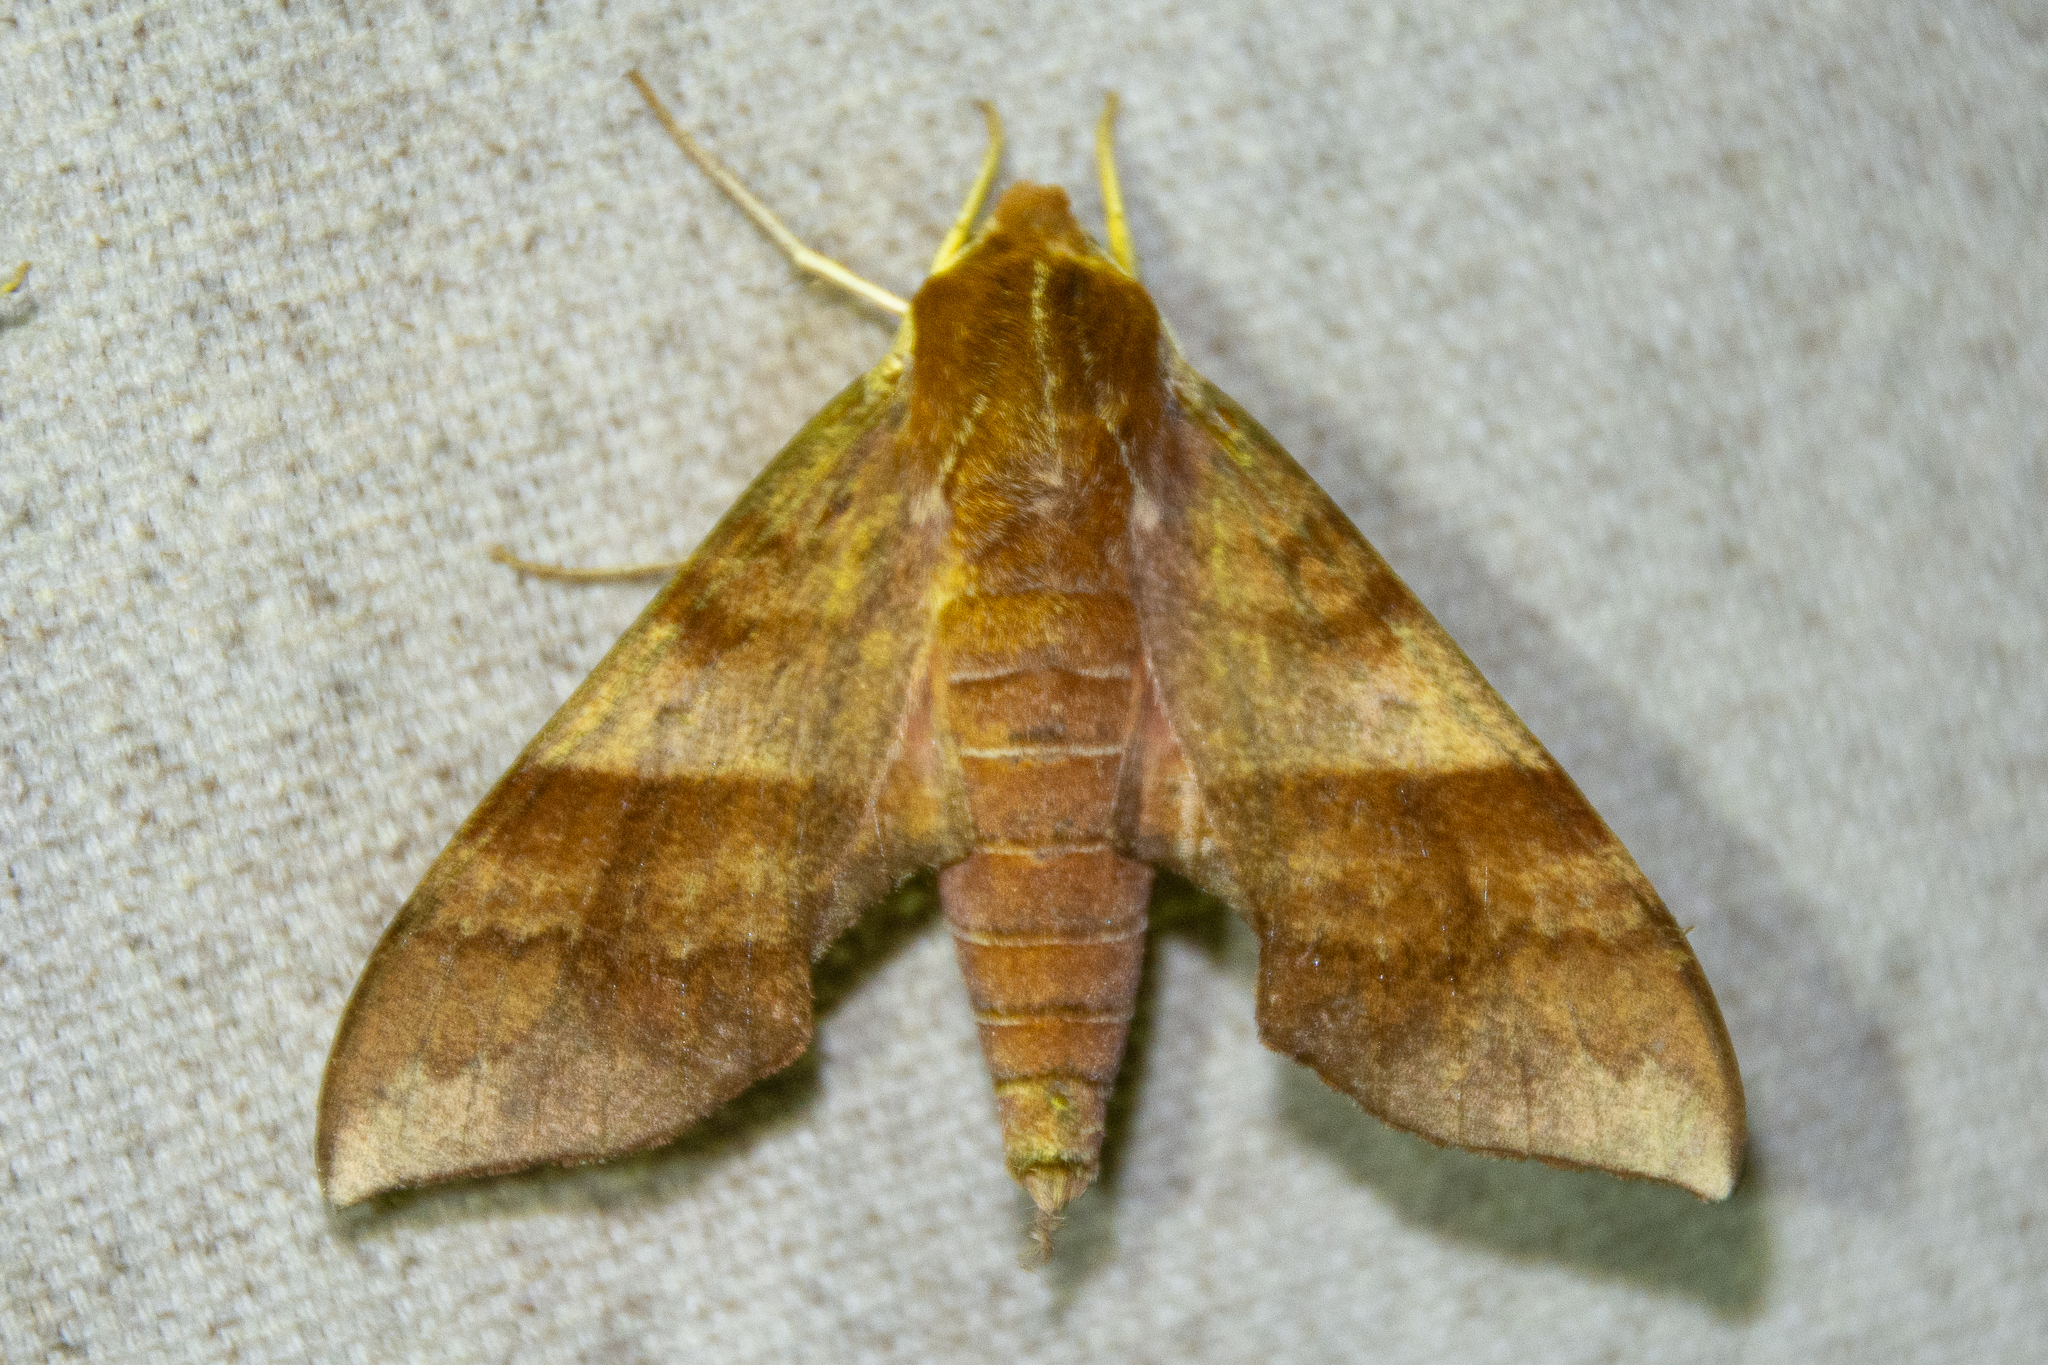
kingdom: Animalia
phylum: Arthropoda
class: Insecta
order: Lepidoptera
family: Sphingidae
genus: Darapsa
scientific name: Darapsa choerilus
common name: Azalea sphinx
